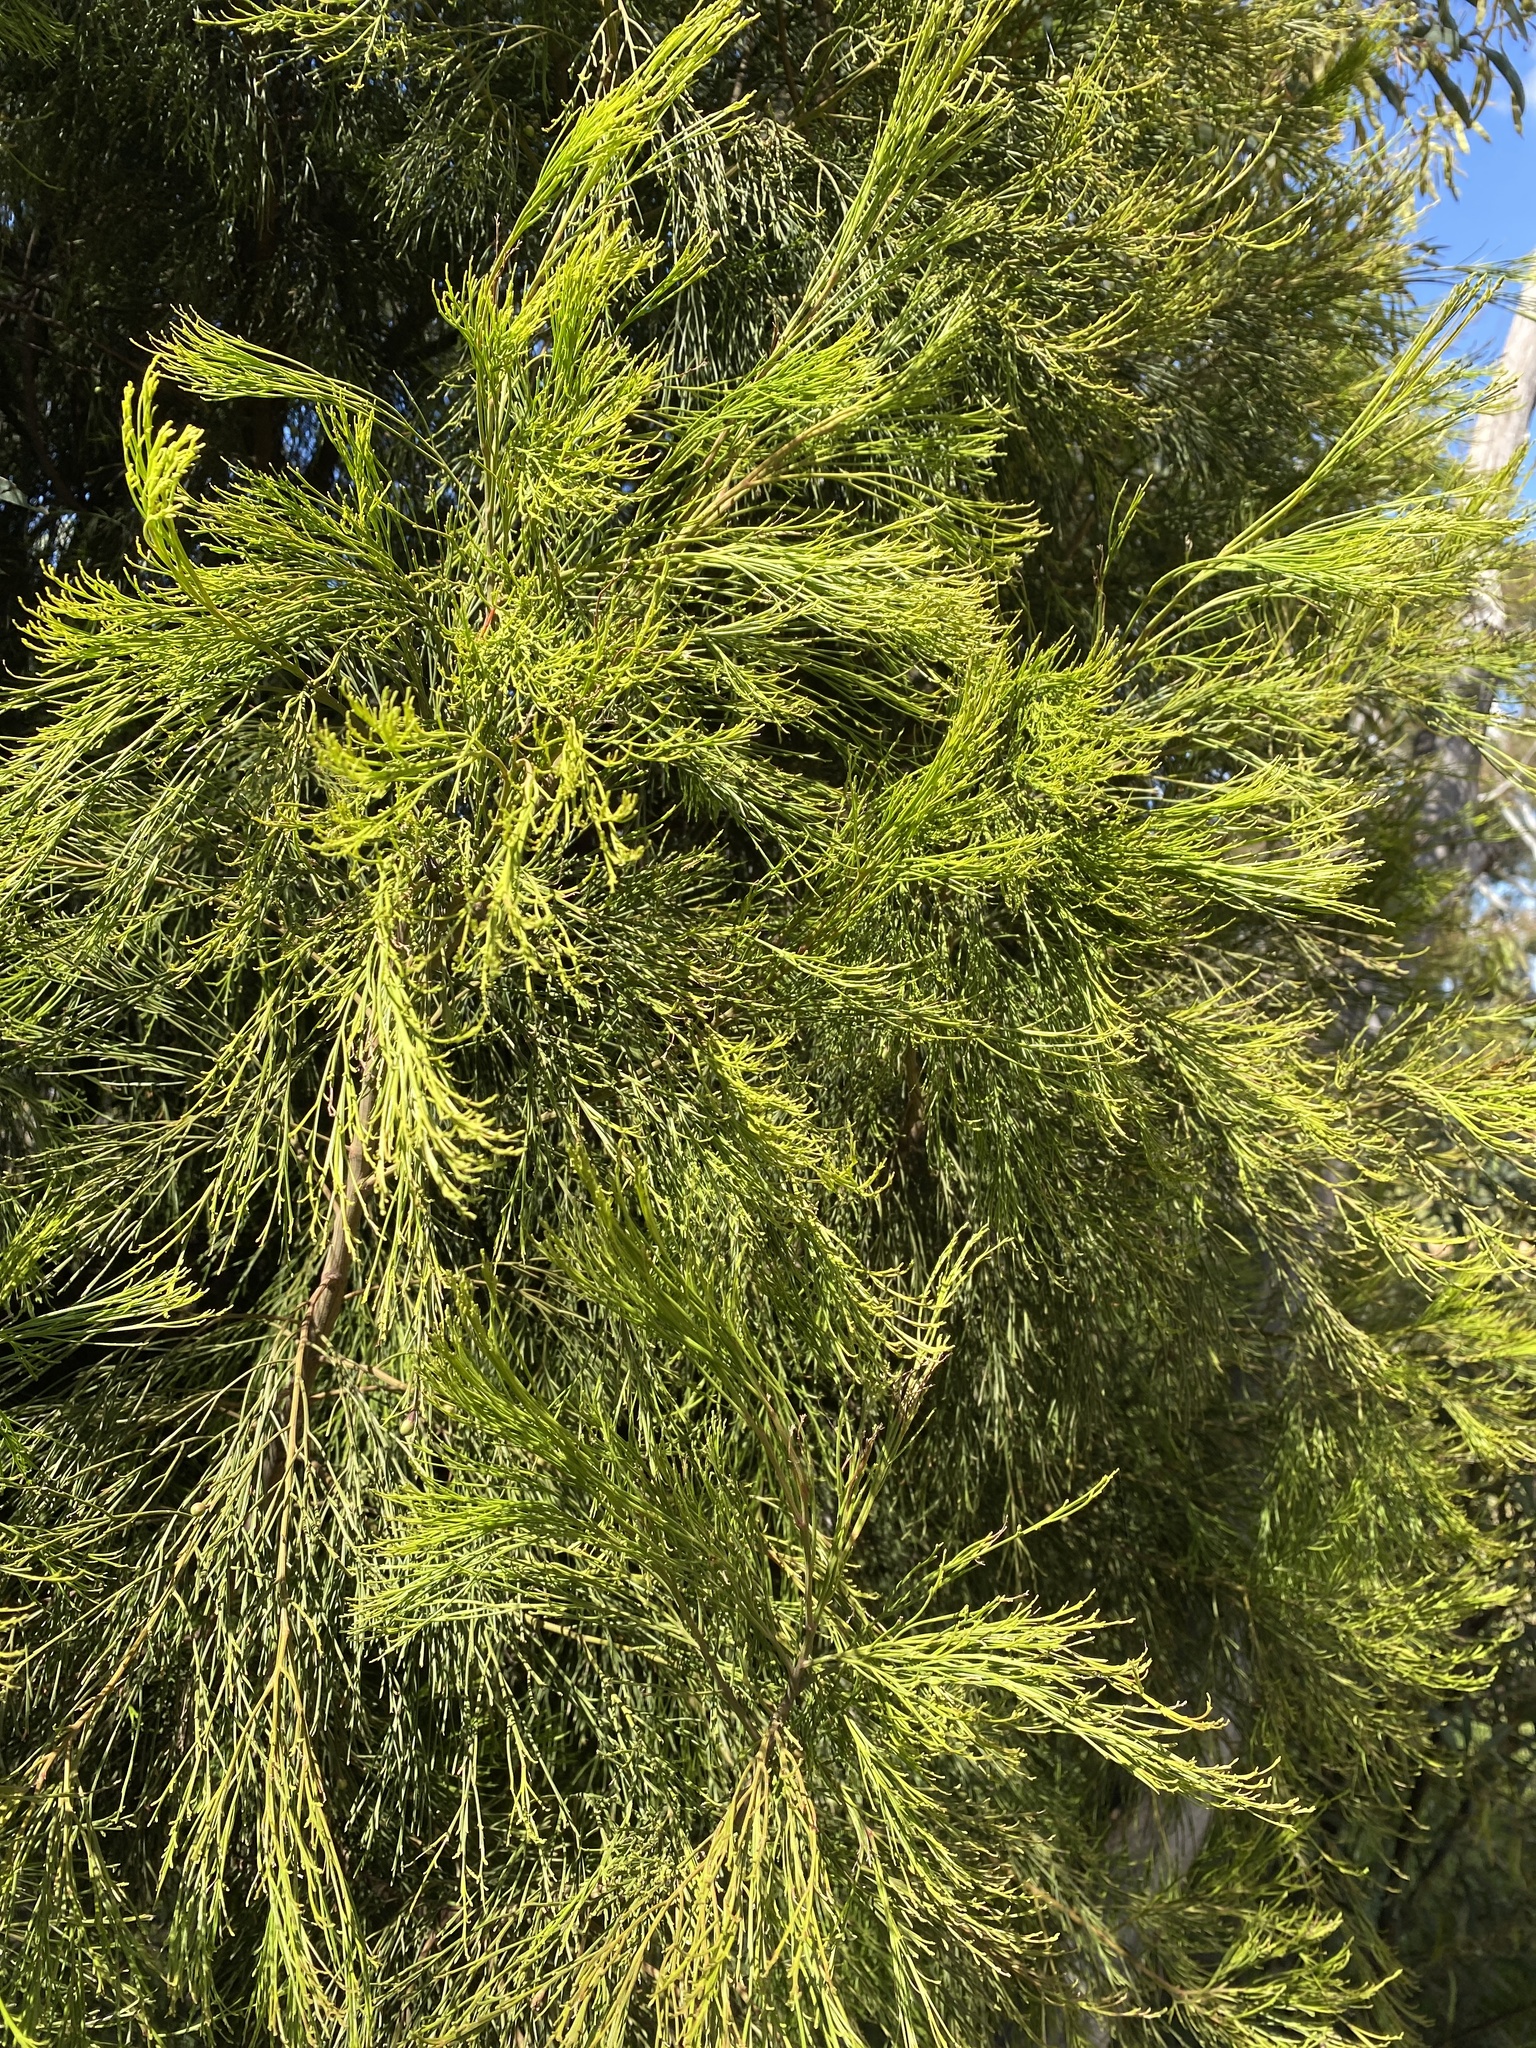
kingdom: Plantae
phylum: Tracheophyta
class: Magnoliopsida
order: Santalales
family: Santalaceae
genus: Exocarpos
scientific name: Exocarpos cupressiformis
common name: Cherry ballart
